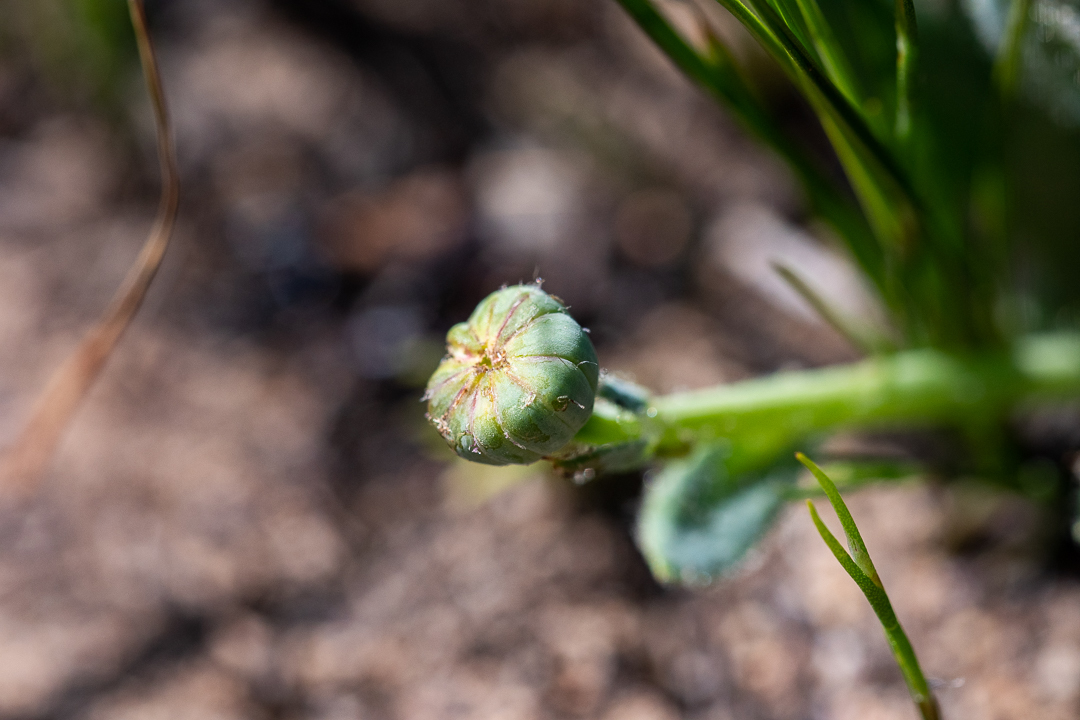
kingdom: Plantae
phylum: Tracheophyta
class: Magnoliopsida
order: Asterales
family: Asteraceae
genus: Othonna
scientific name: Othonna heterophylla
